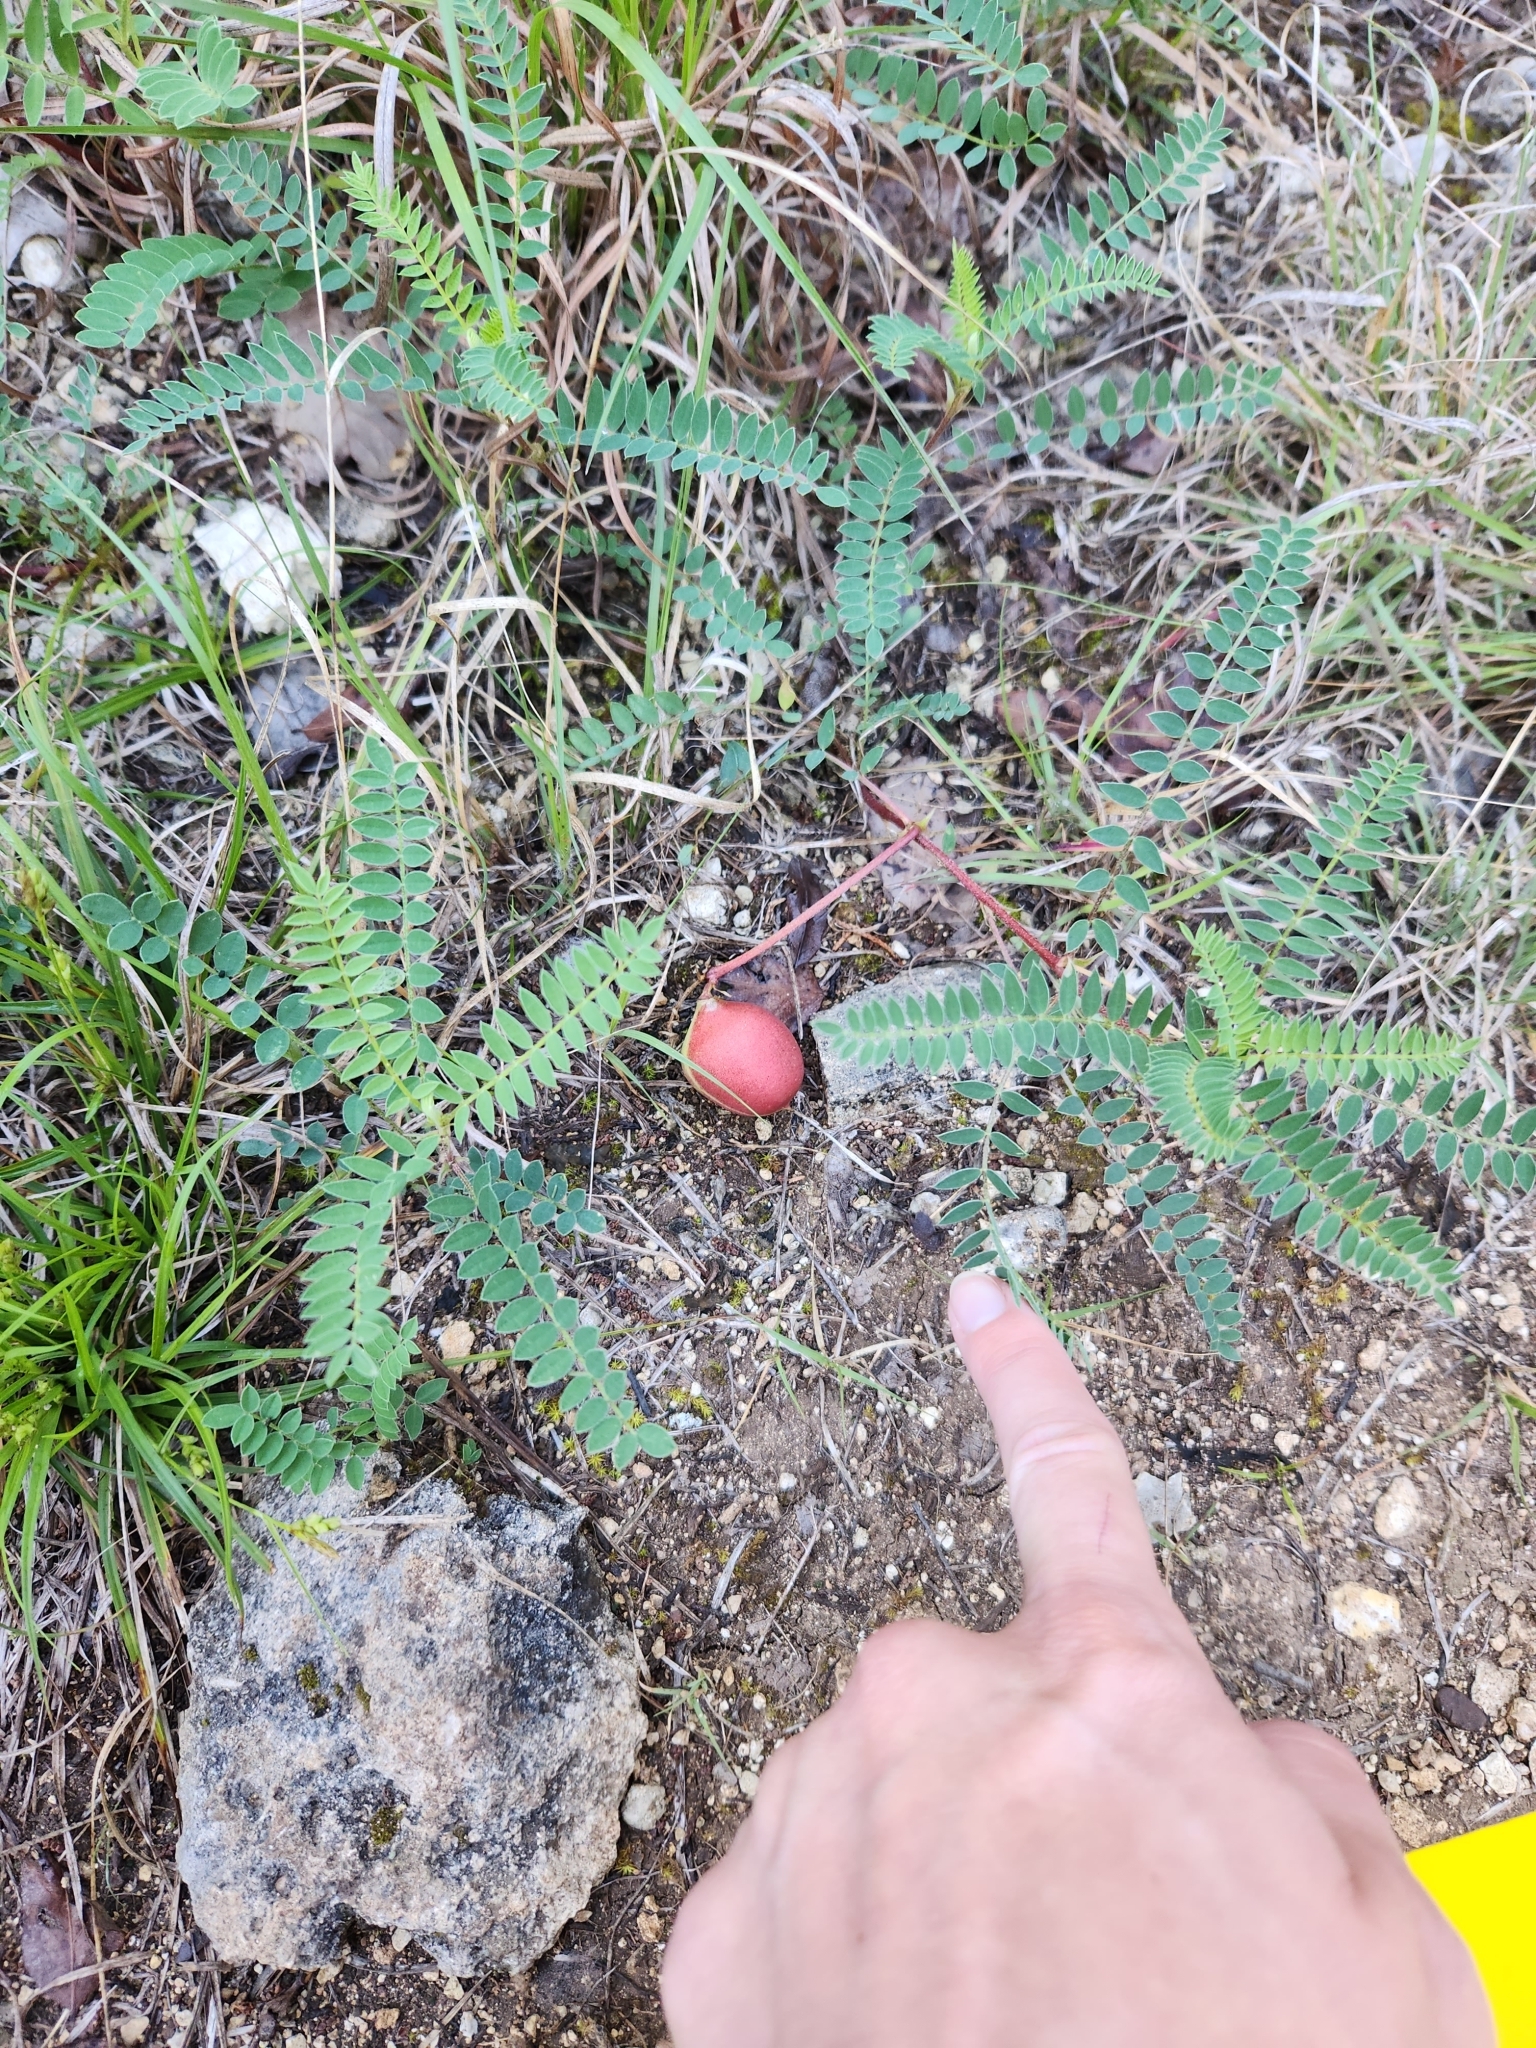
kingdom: Plantae
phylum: Tracheophyta
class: Magnoliopsida
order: Fabales
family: Fabaceae
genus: Astragalus
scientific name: Astragalus crassicarpus
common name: Ground-plum milk-vetch
